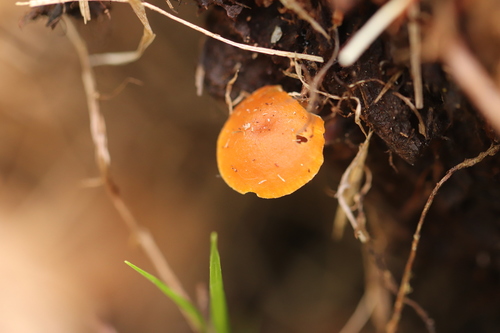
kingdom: Fungi
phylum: Basidiomycota
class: Agaricomycetes
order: Agaricales
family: Mycenaceae
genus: Xeromphalina
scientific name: Xeromphalina campanella
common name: Pinewood gingertail
